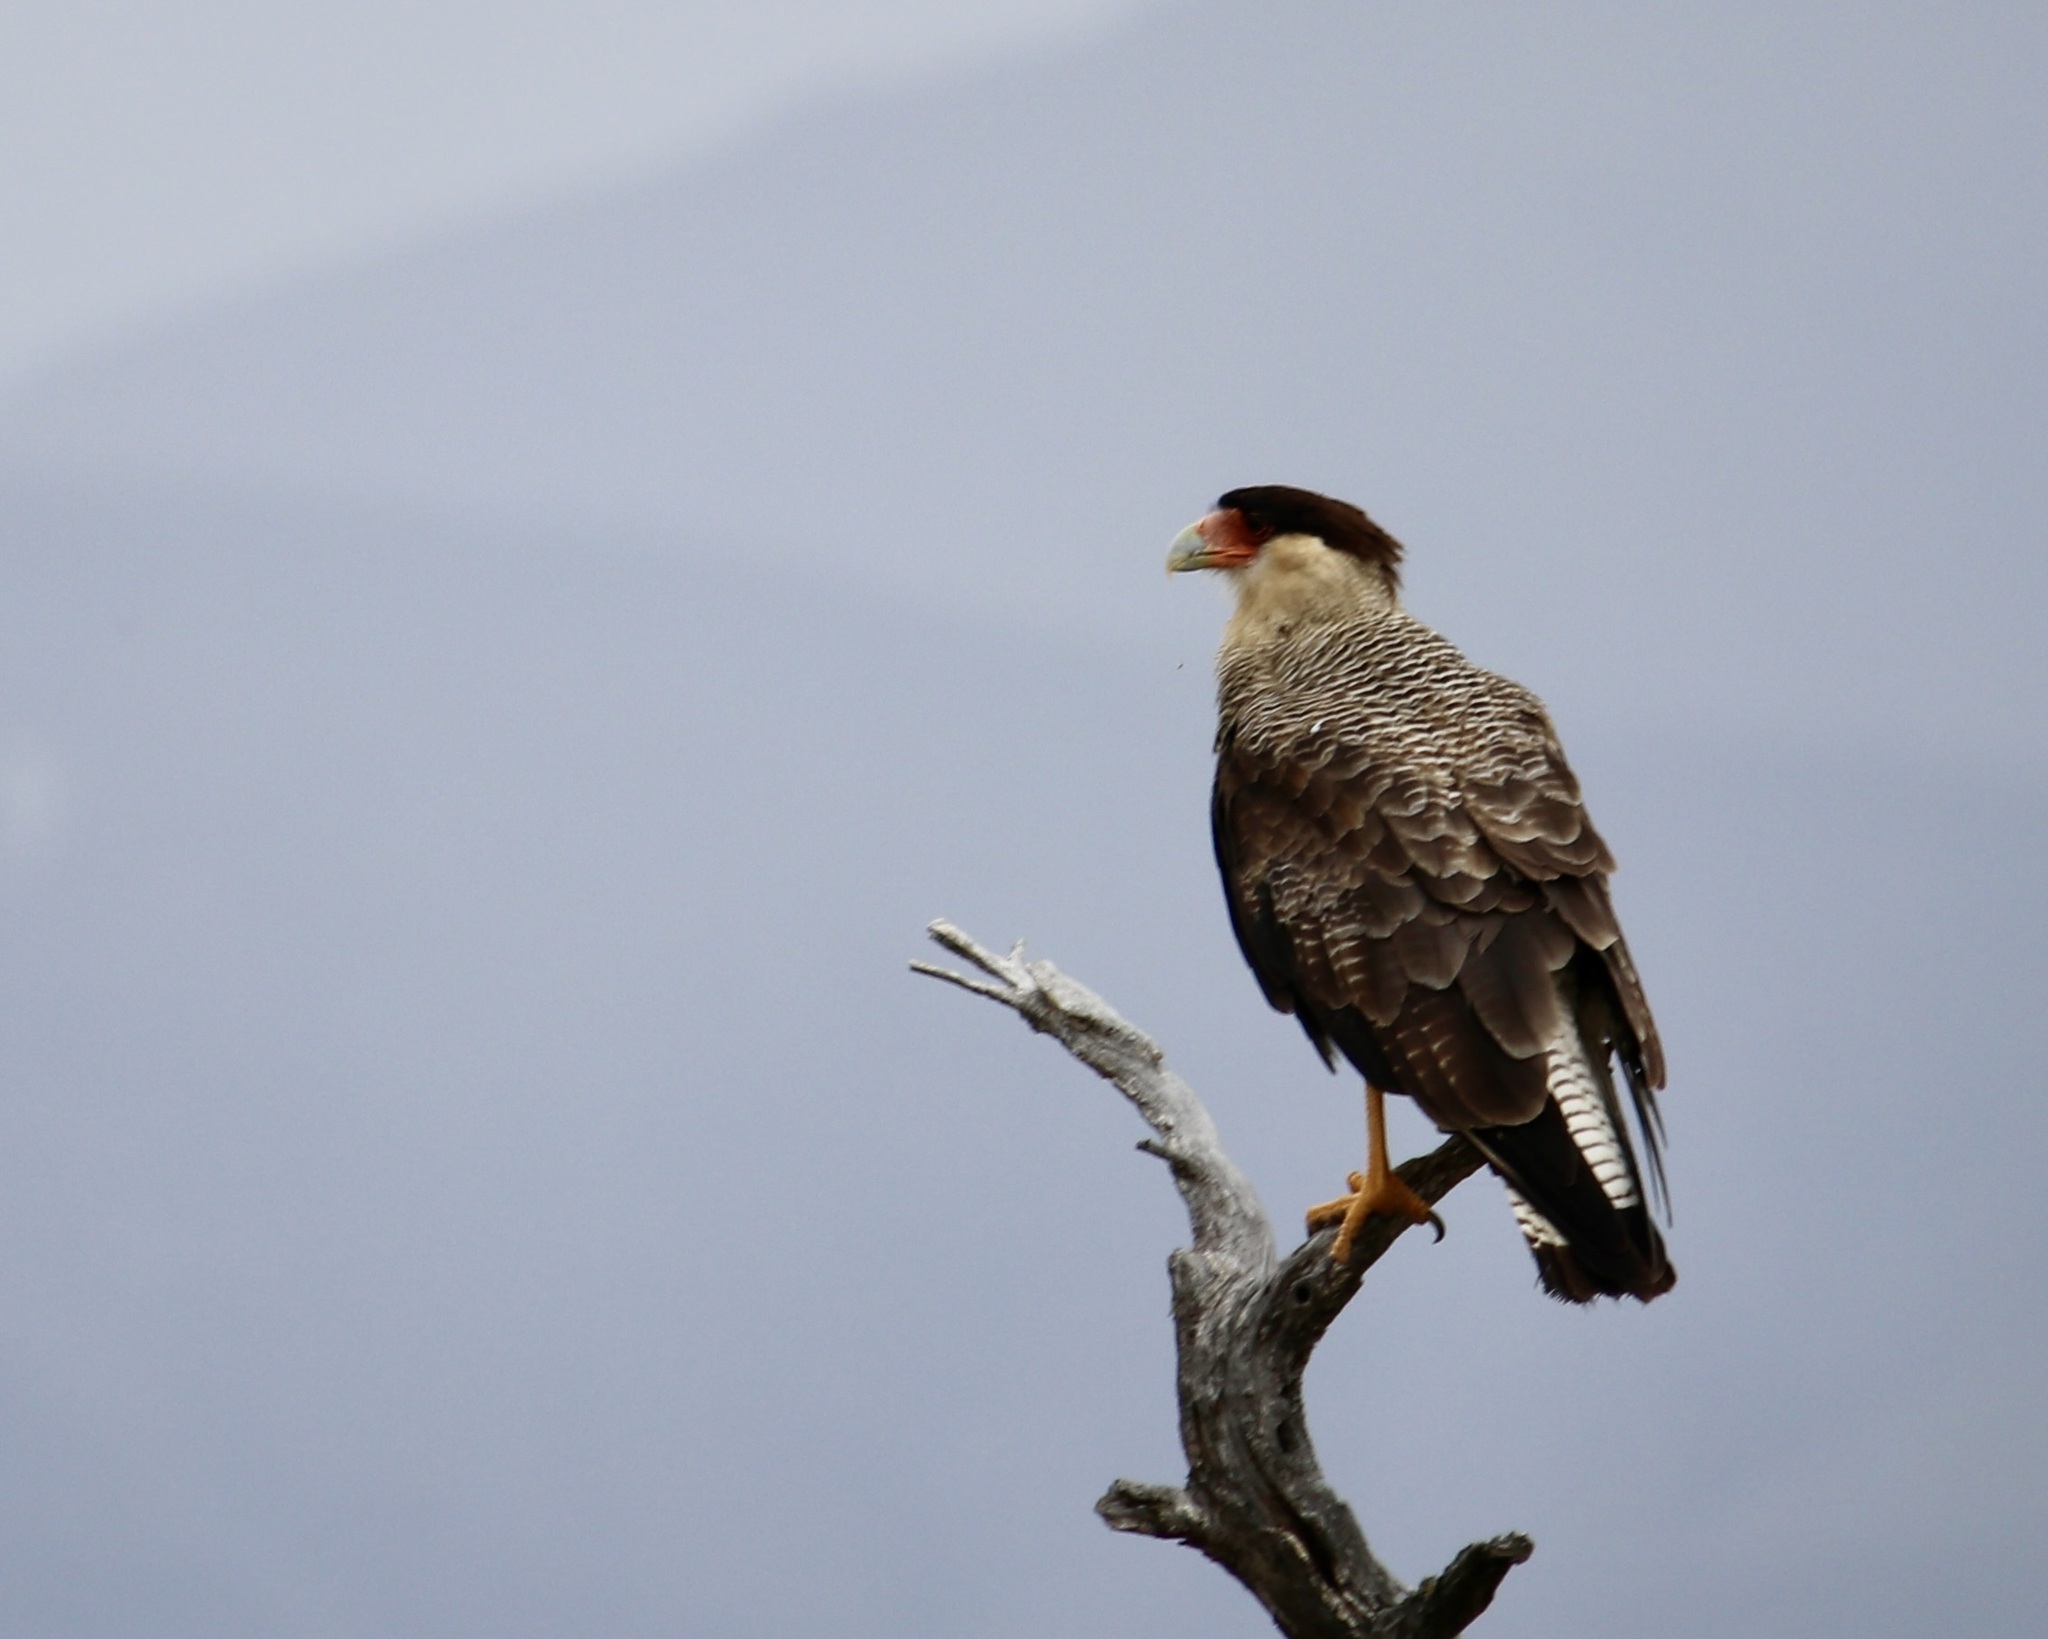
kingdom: Animalia
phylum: Chordata
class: Aves
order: Falconiformes
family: Falconidae
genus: Caracara
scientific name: Caracara plancus
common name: Southern caracara
